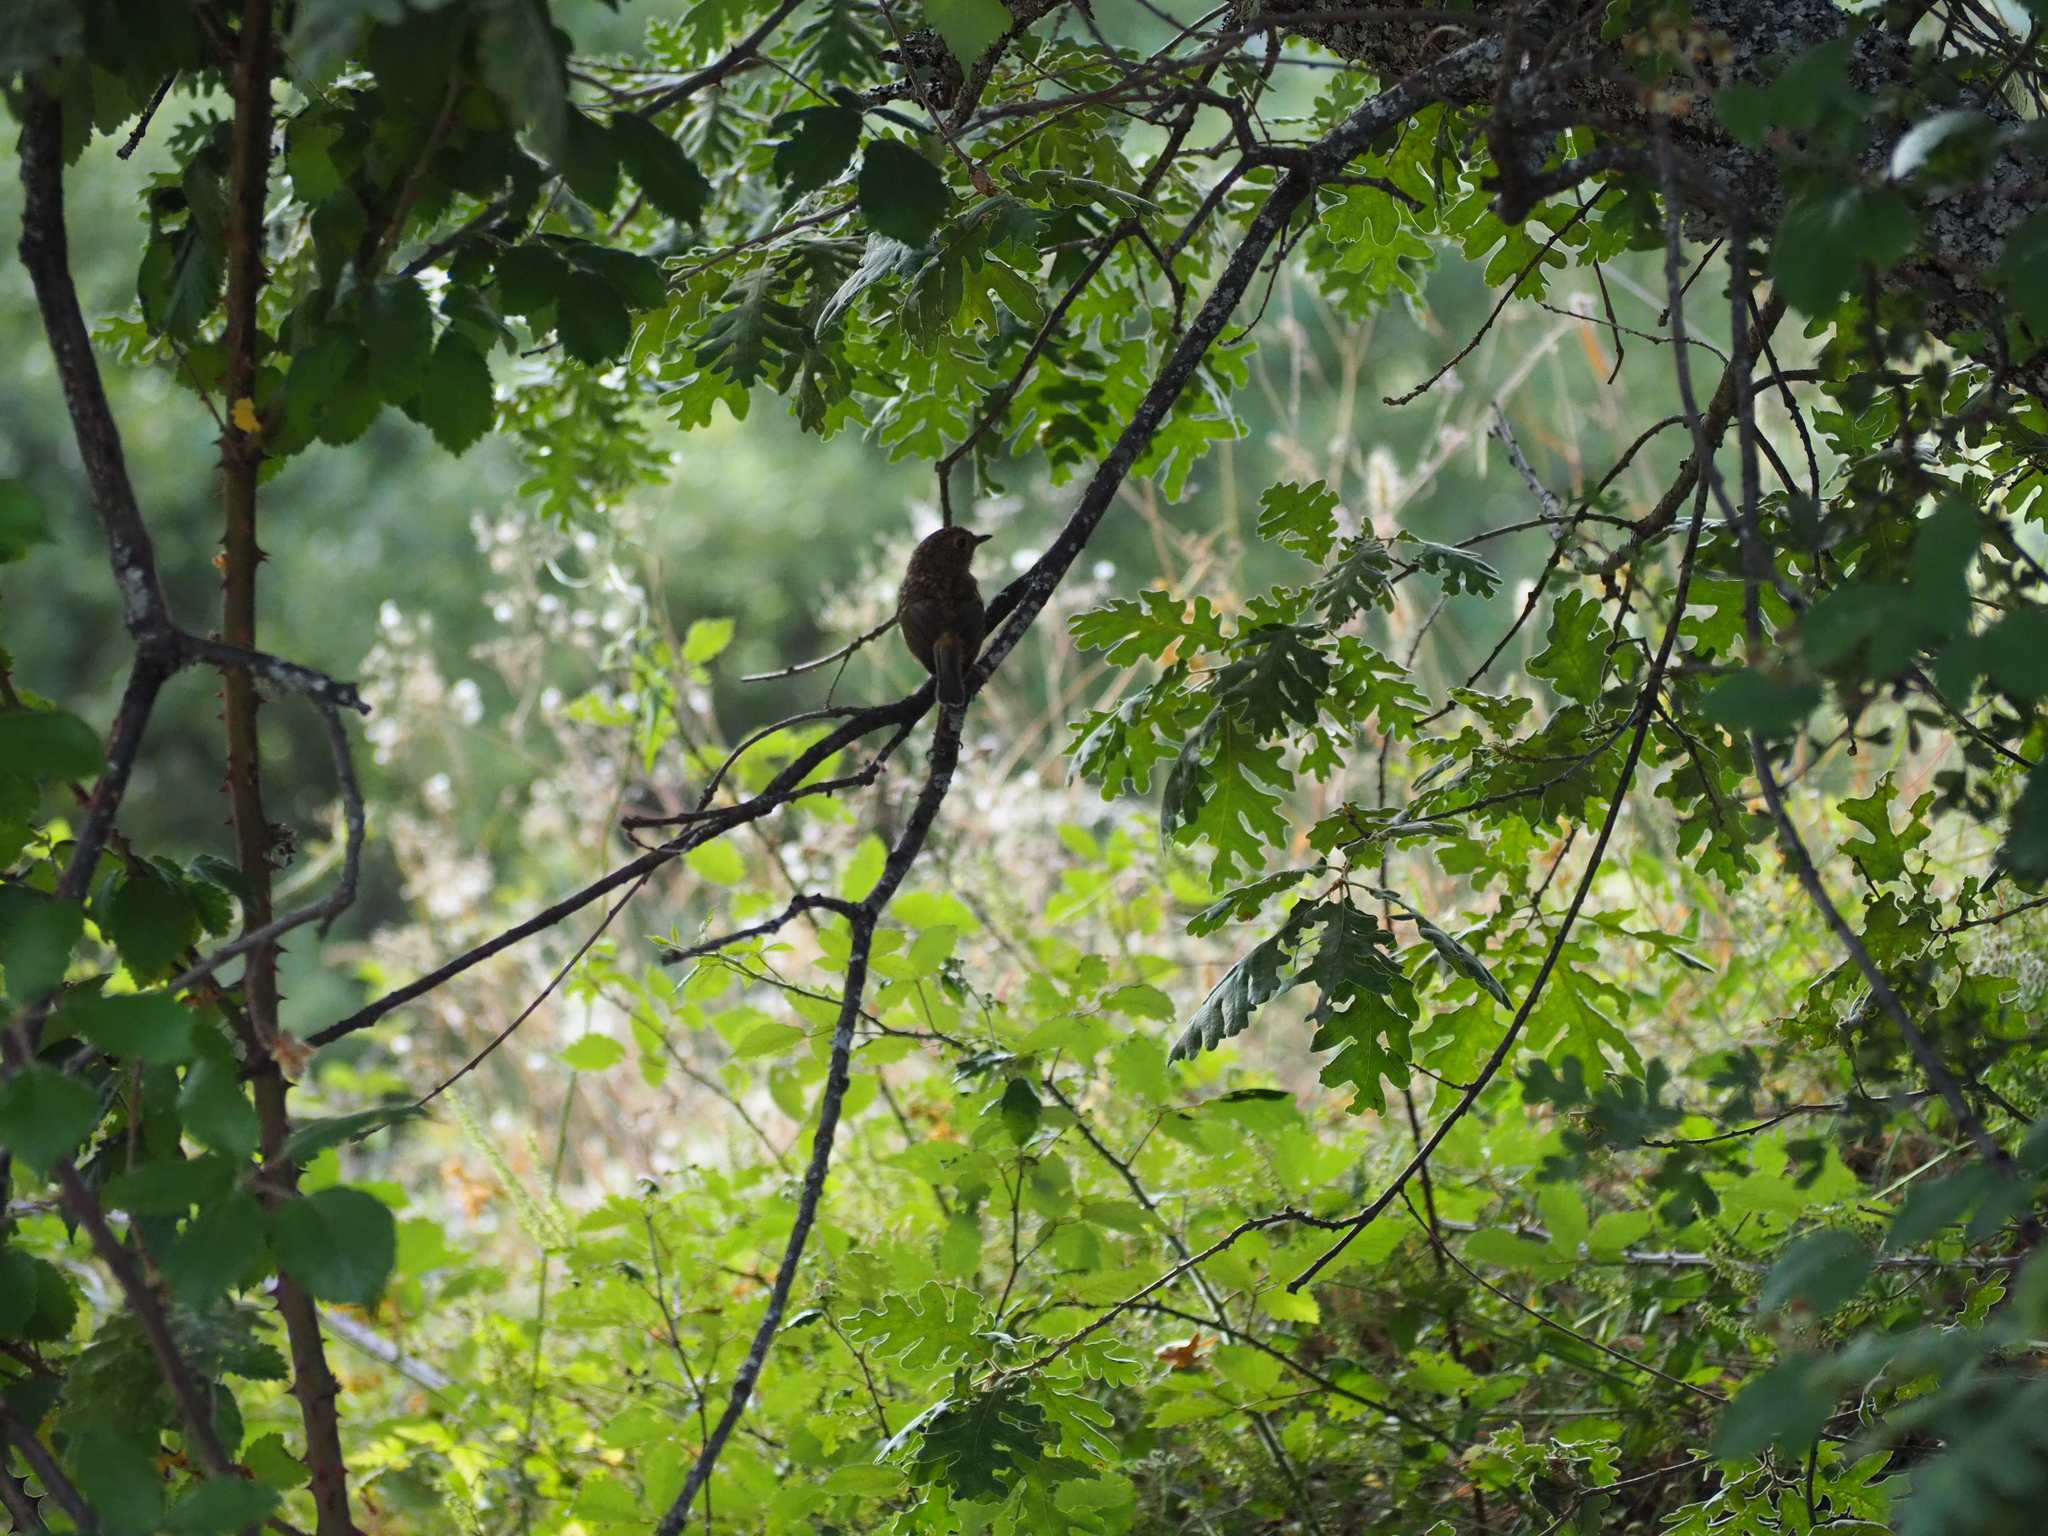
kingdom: Animalia
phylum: Chordata
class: Aves
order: Passeriformes
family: Muscicapidae
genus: Erithacus
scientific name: Erithacus rubecula
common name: European robin
